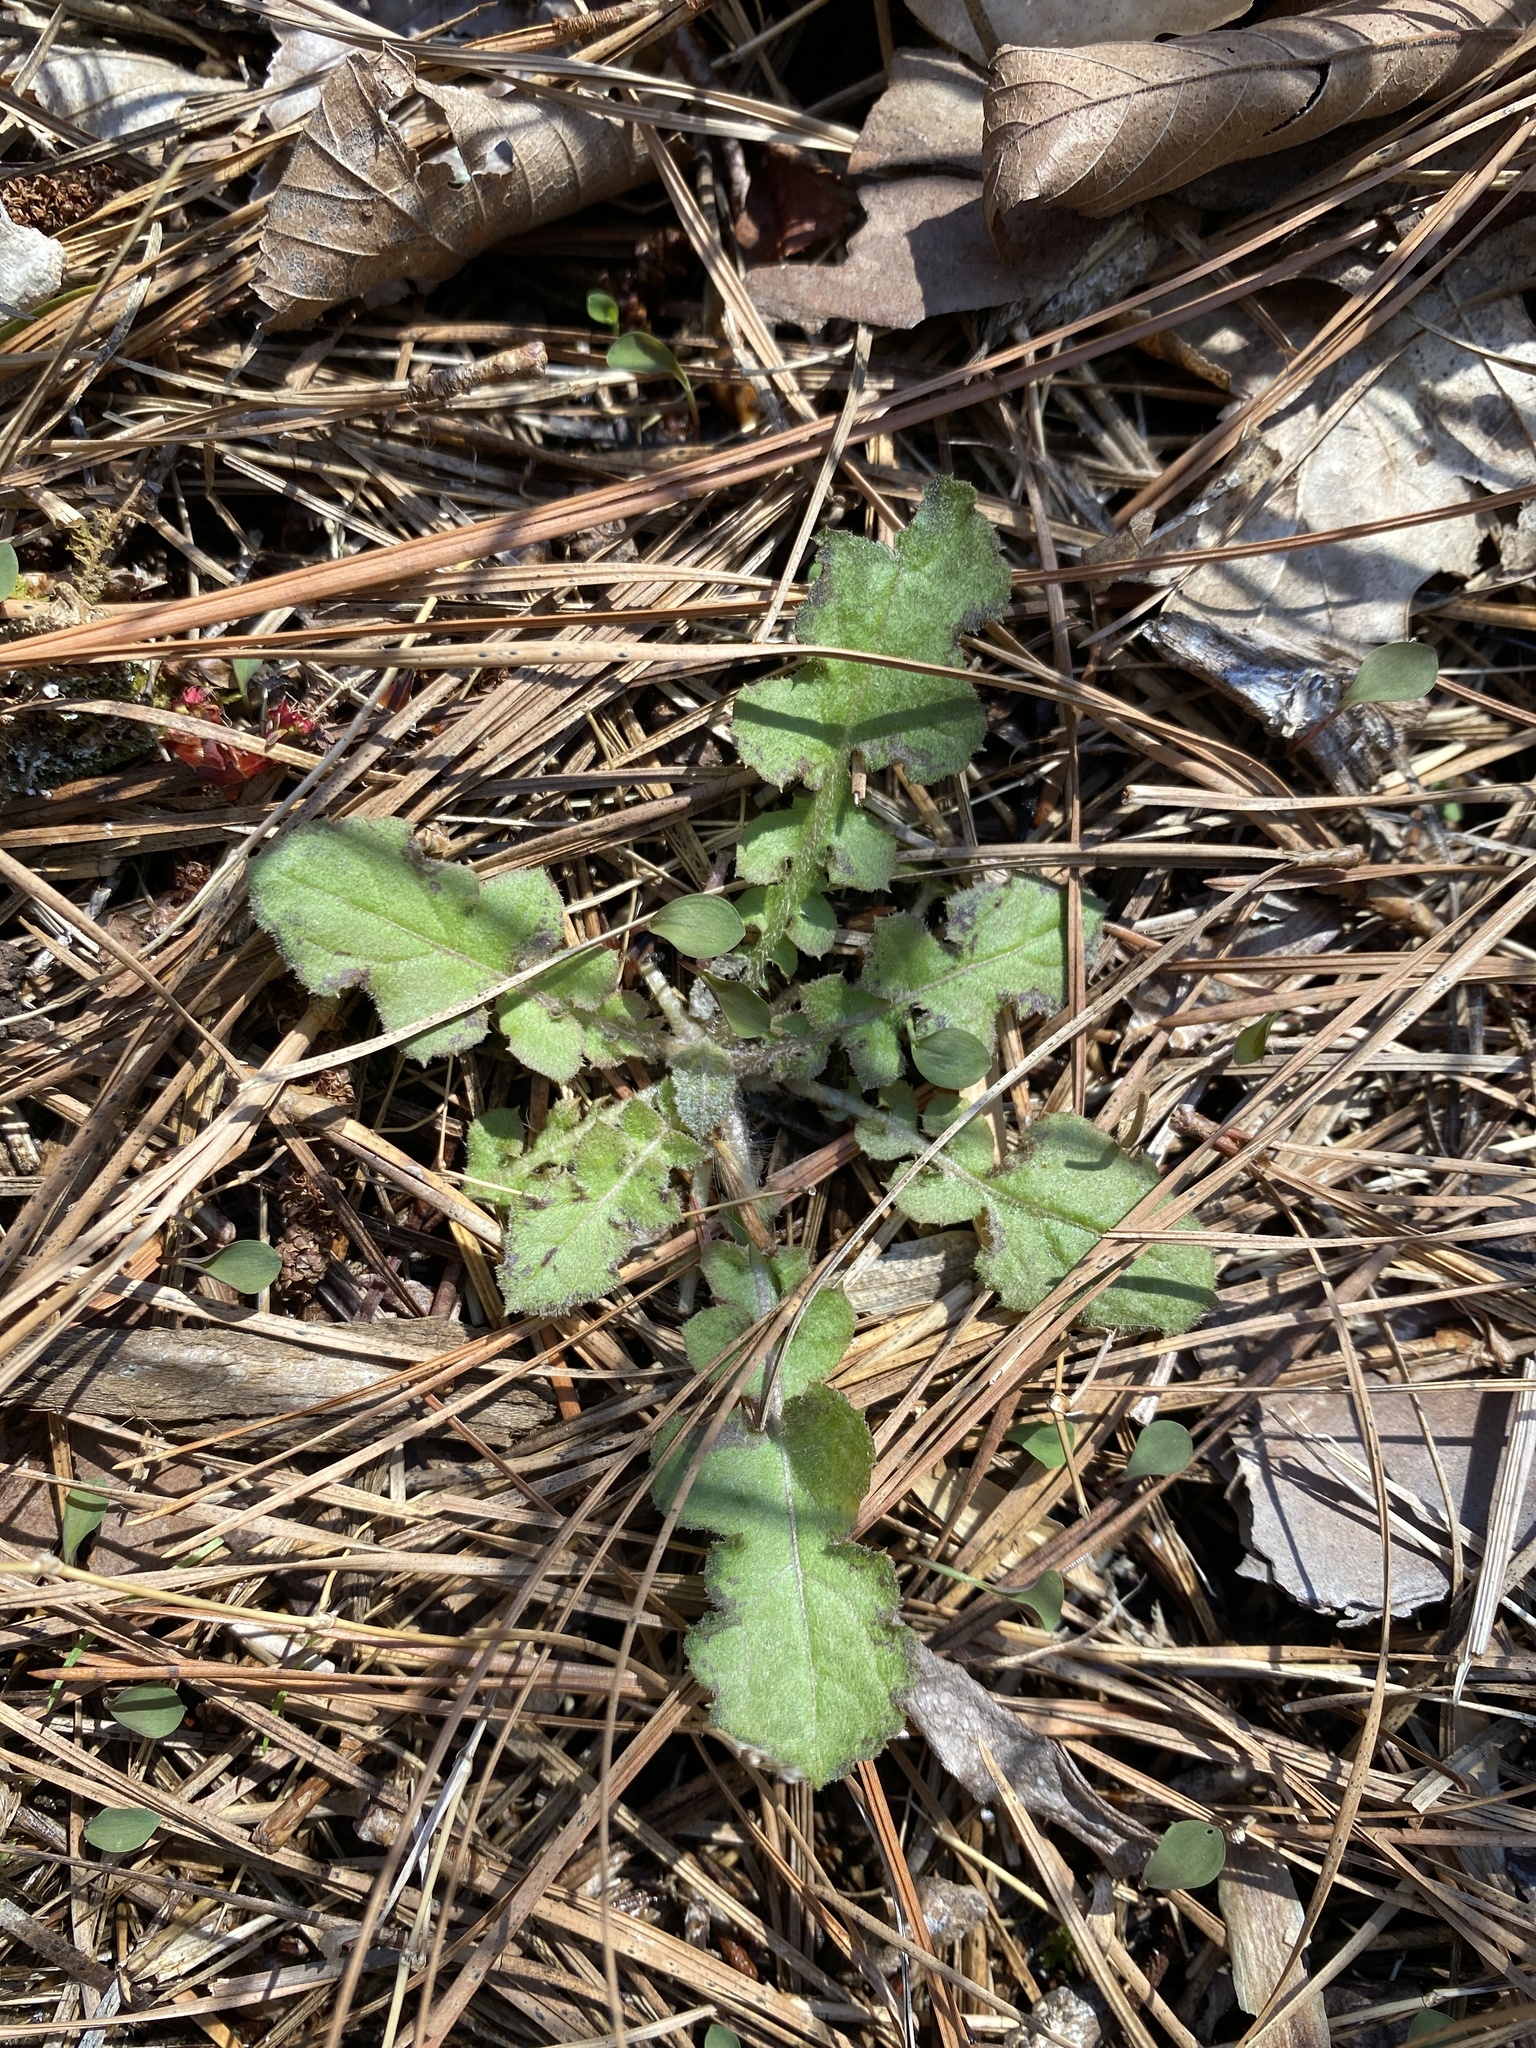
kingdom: Plantae
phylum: Tracheophyta
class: Magnoliopsida
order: Asterales
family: Asteraceae
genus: Youngia
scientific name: Youngia japonica
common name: Oriental false hawksbeard
